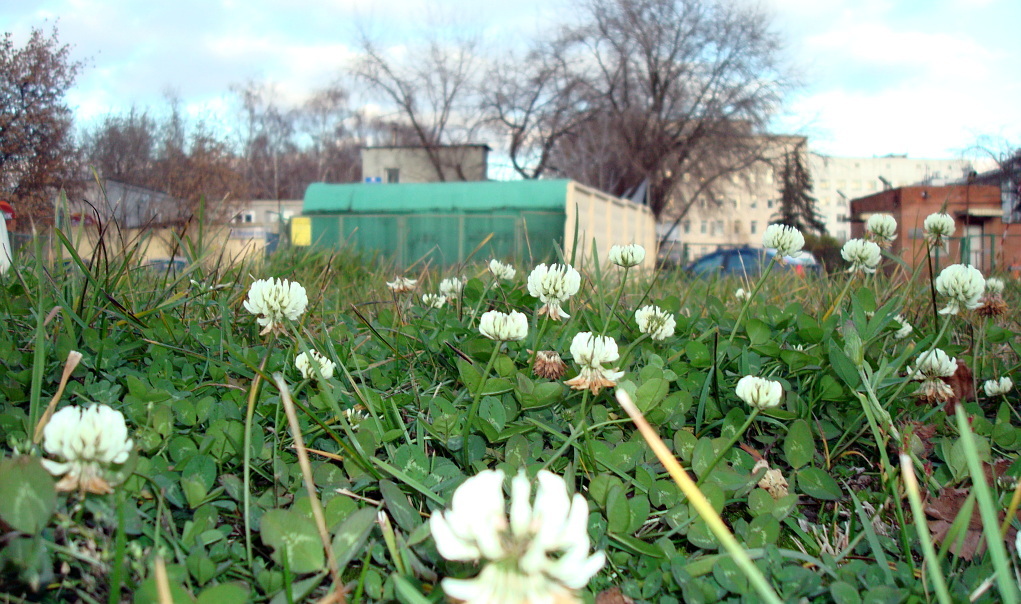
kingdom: Plantae
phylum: Tracheophyta
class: Magnoliopsida
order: Fabales
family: Fabaceae
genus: Trifolium
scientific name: Trifolium repens
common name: White clover
